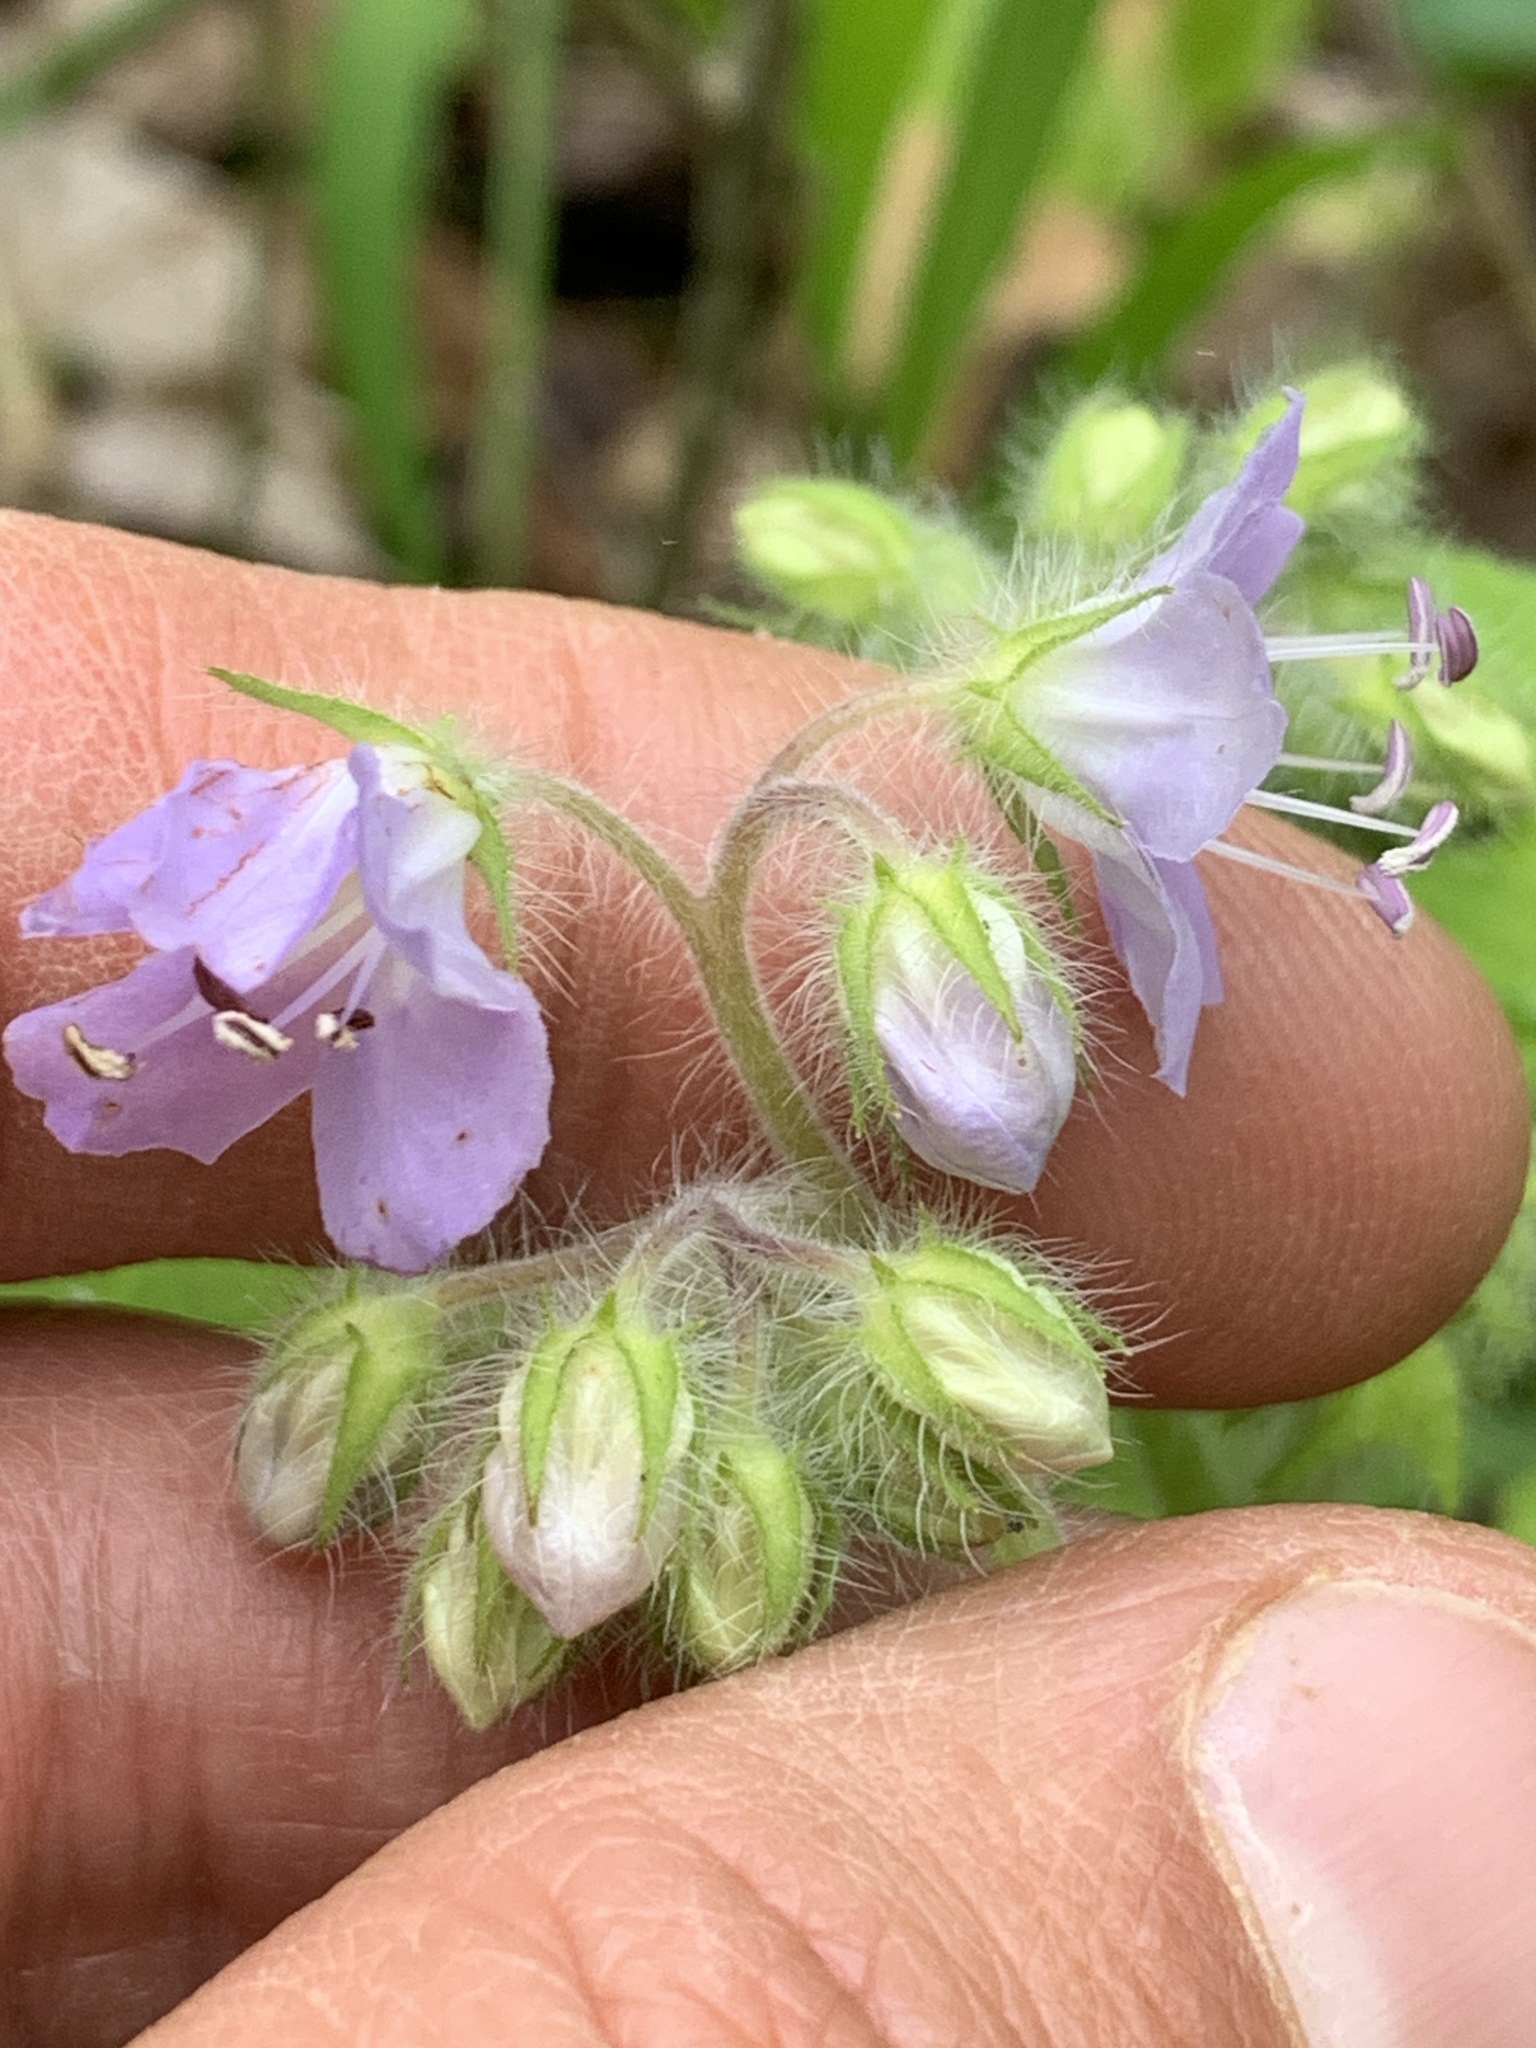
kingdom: Plantae
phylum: Tracheophyta
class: Magnoliopsida
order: Boraginales
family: Hydrophyllaceae
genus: Hydrophyllum
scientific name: Hydrophyllum appendiculatum
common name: Appendaged waterleaf
